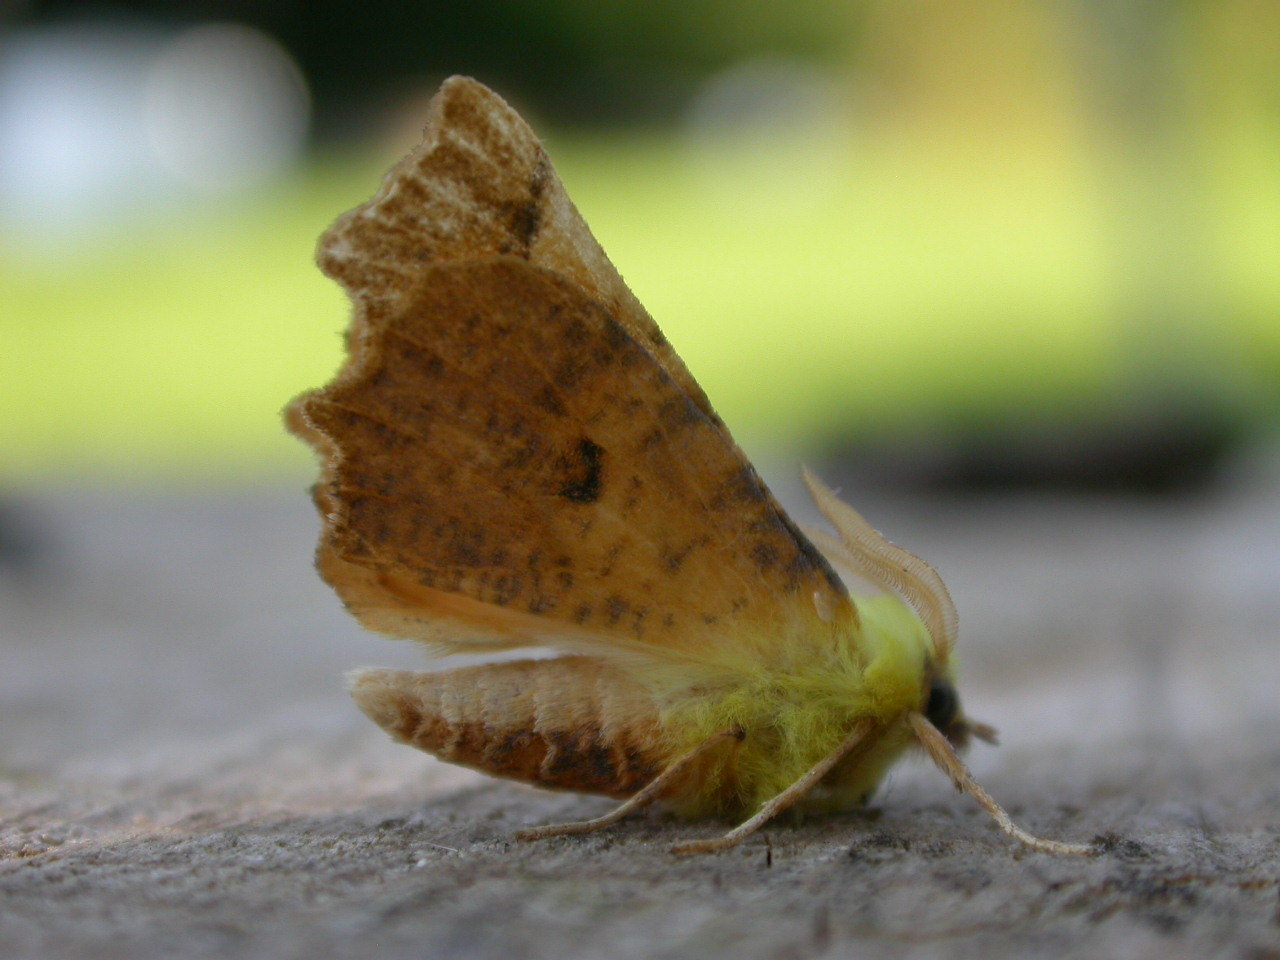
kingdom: Animalia
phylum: Arthropoda
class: Insecta
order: Lepidoptera
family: Geometridae
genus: Ennomos
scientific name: Ennomos alniaria
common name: Canary-shouldered thorn
